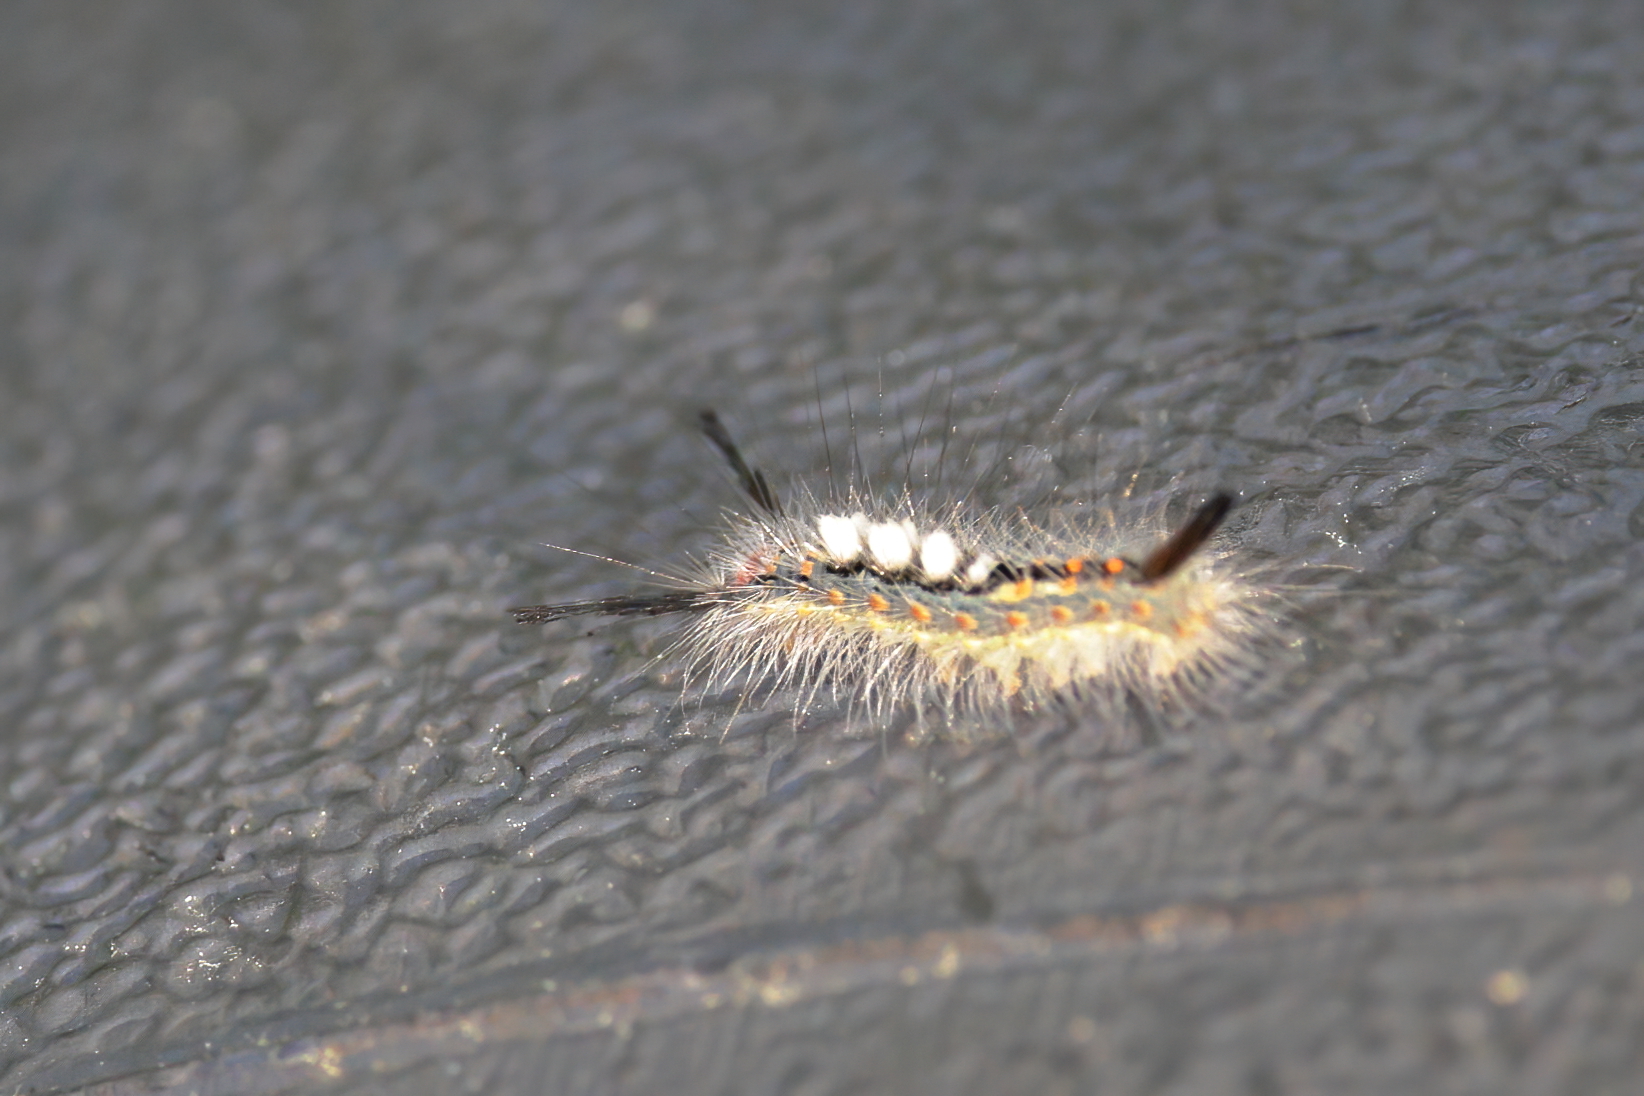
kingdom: Animalia
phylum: Arthropoda
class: Insecta
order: Lepidoptera
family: Erebidae
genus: Orgyia
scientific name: Orgyia detrita
